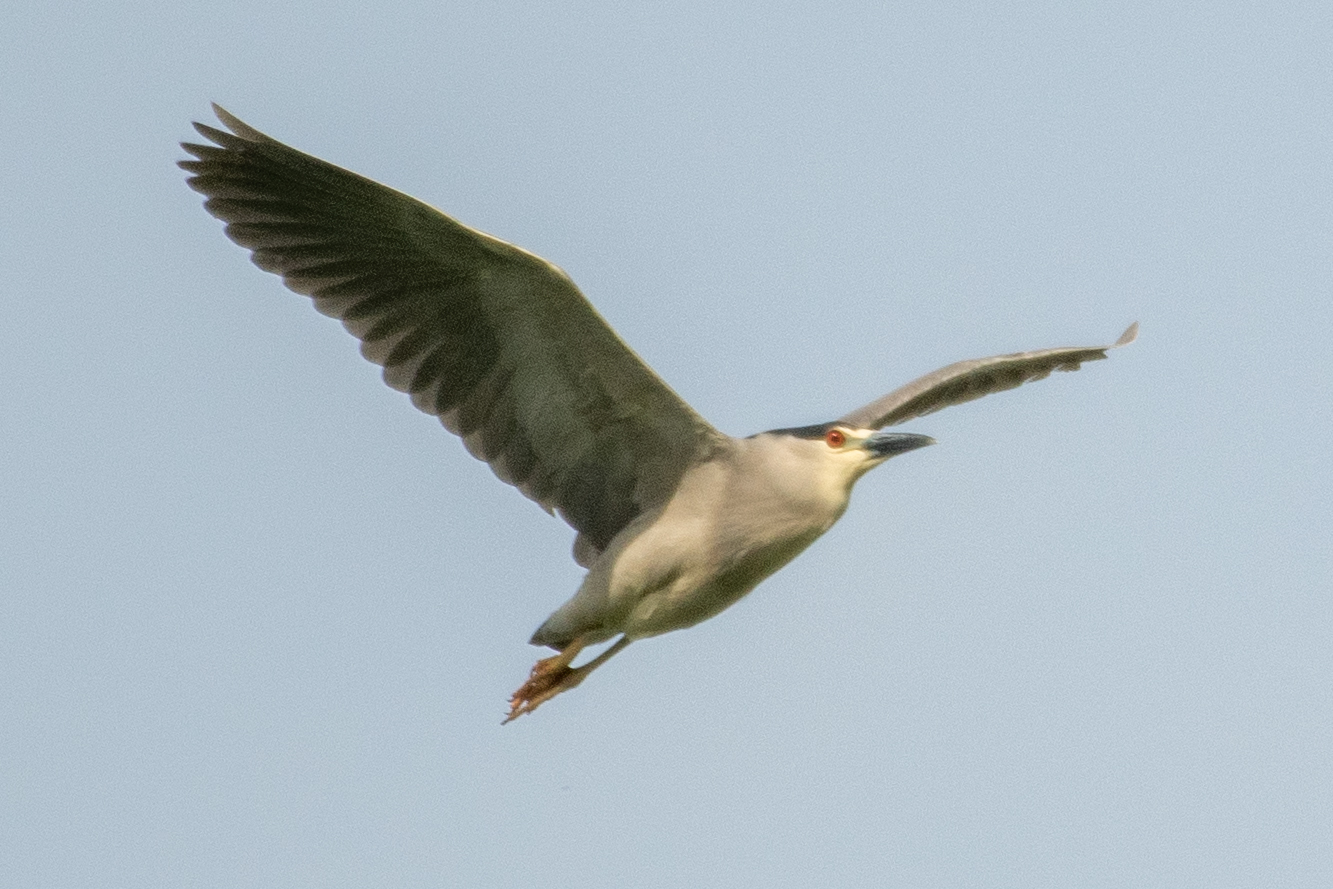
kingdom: Animalia
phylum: Chordata
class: Aves
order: Pelecaniformes
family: Ardeidae
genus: Nycticorax
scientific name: Nycticorax nycticorax
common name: Black-crowned night heron
